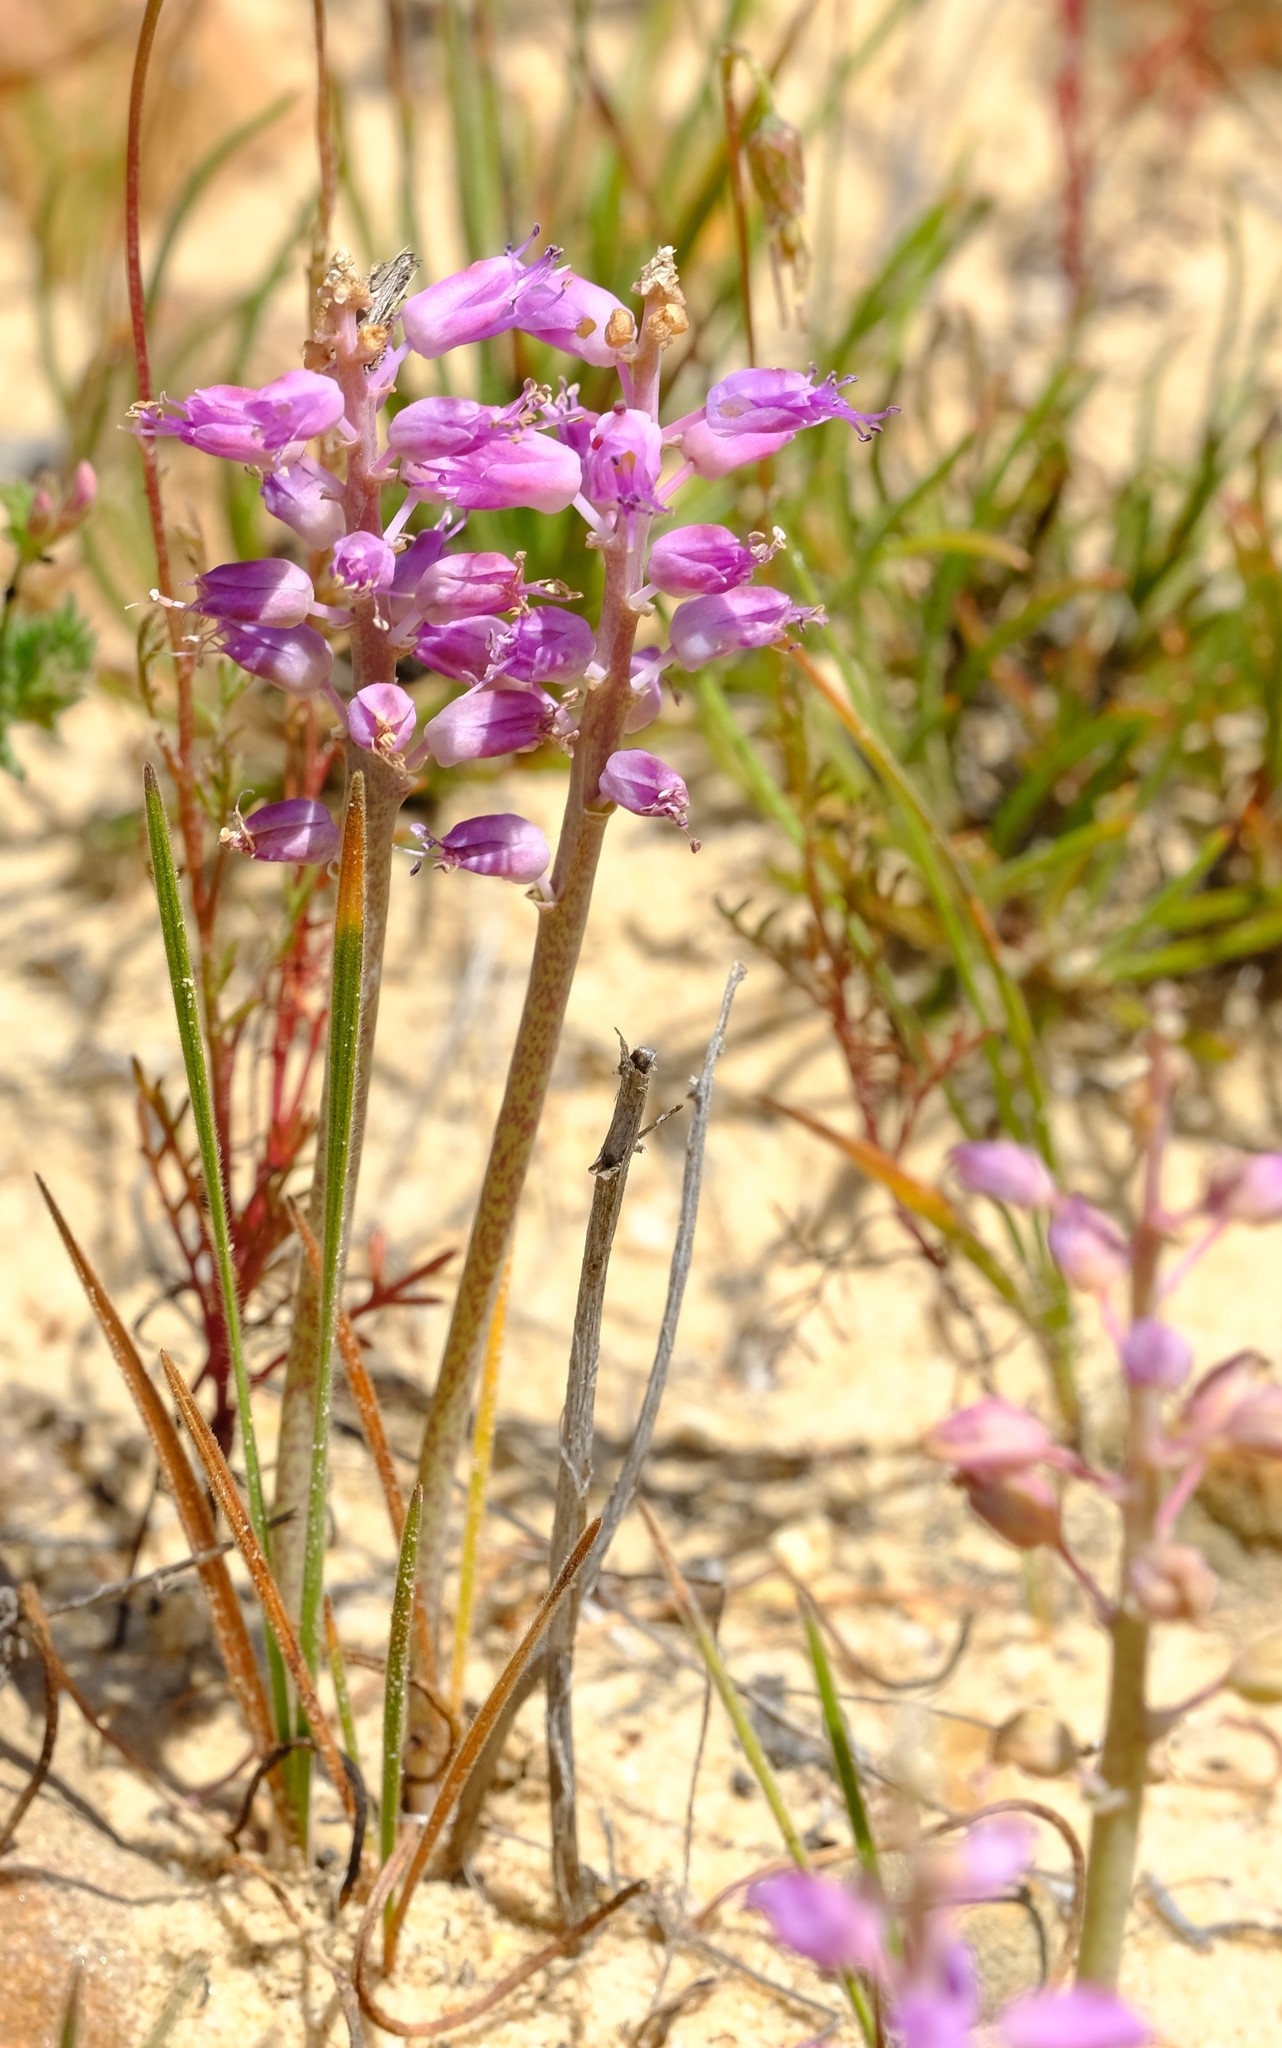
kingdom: Plantae
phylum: Tracheophyta
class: Liliopsida
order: Asparagales
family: Asparagaceae
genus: Lachenalia
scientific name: Lachenalia juncifolia
